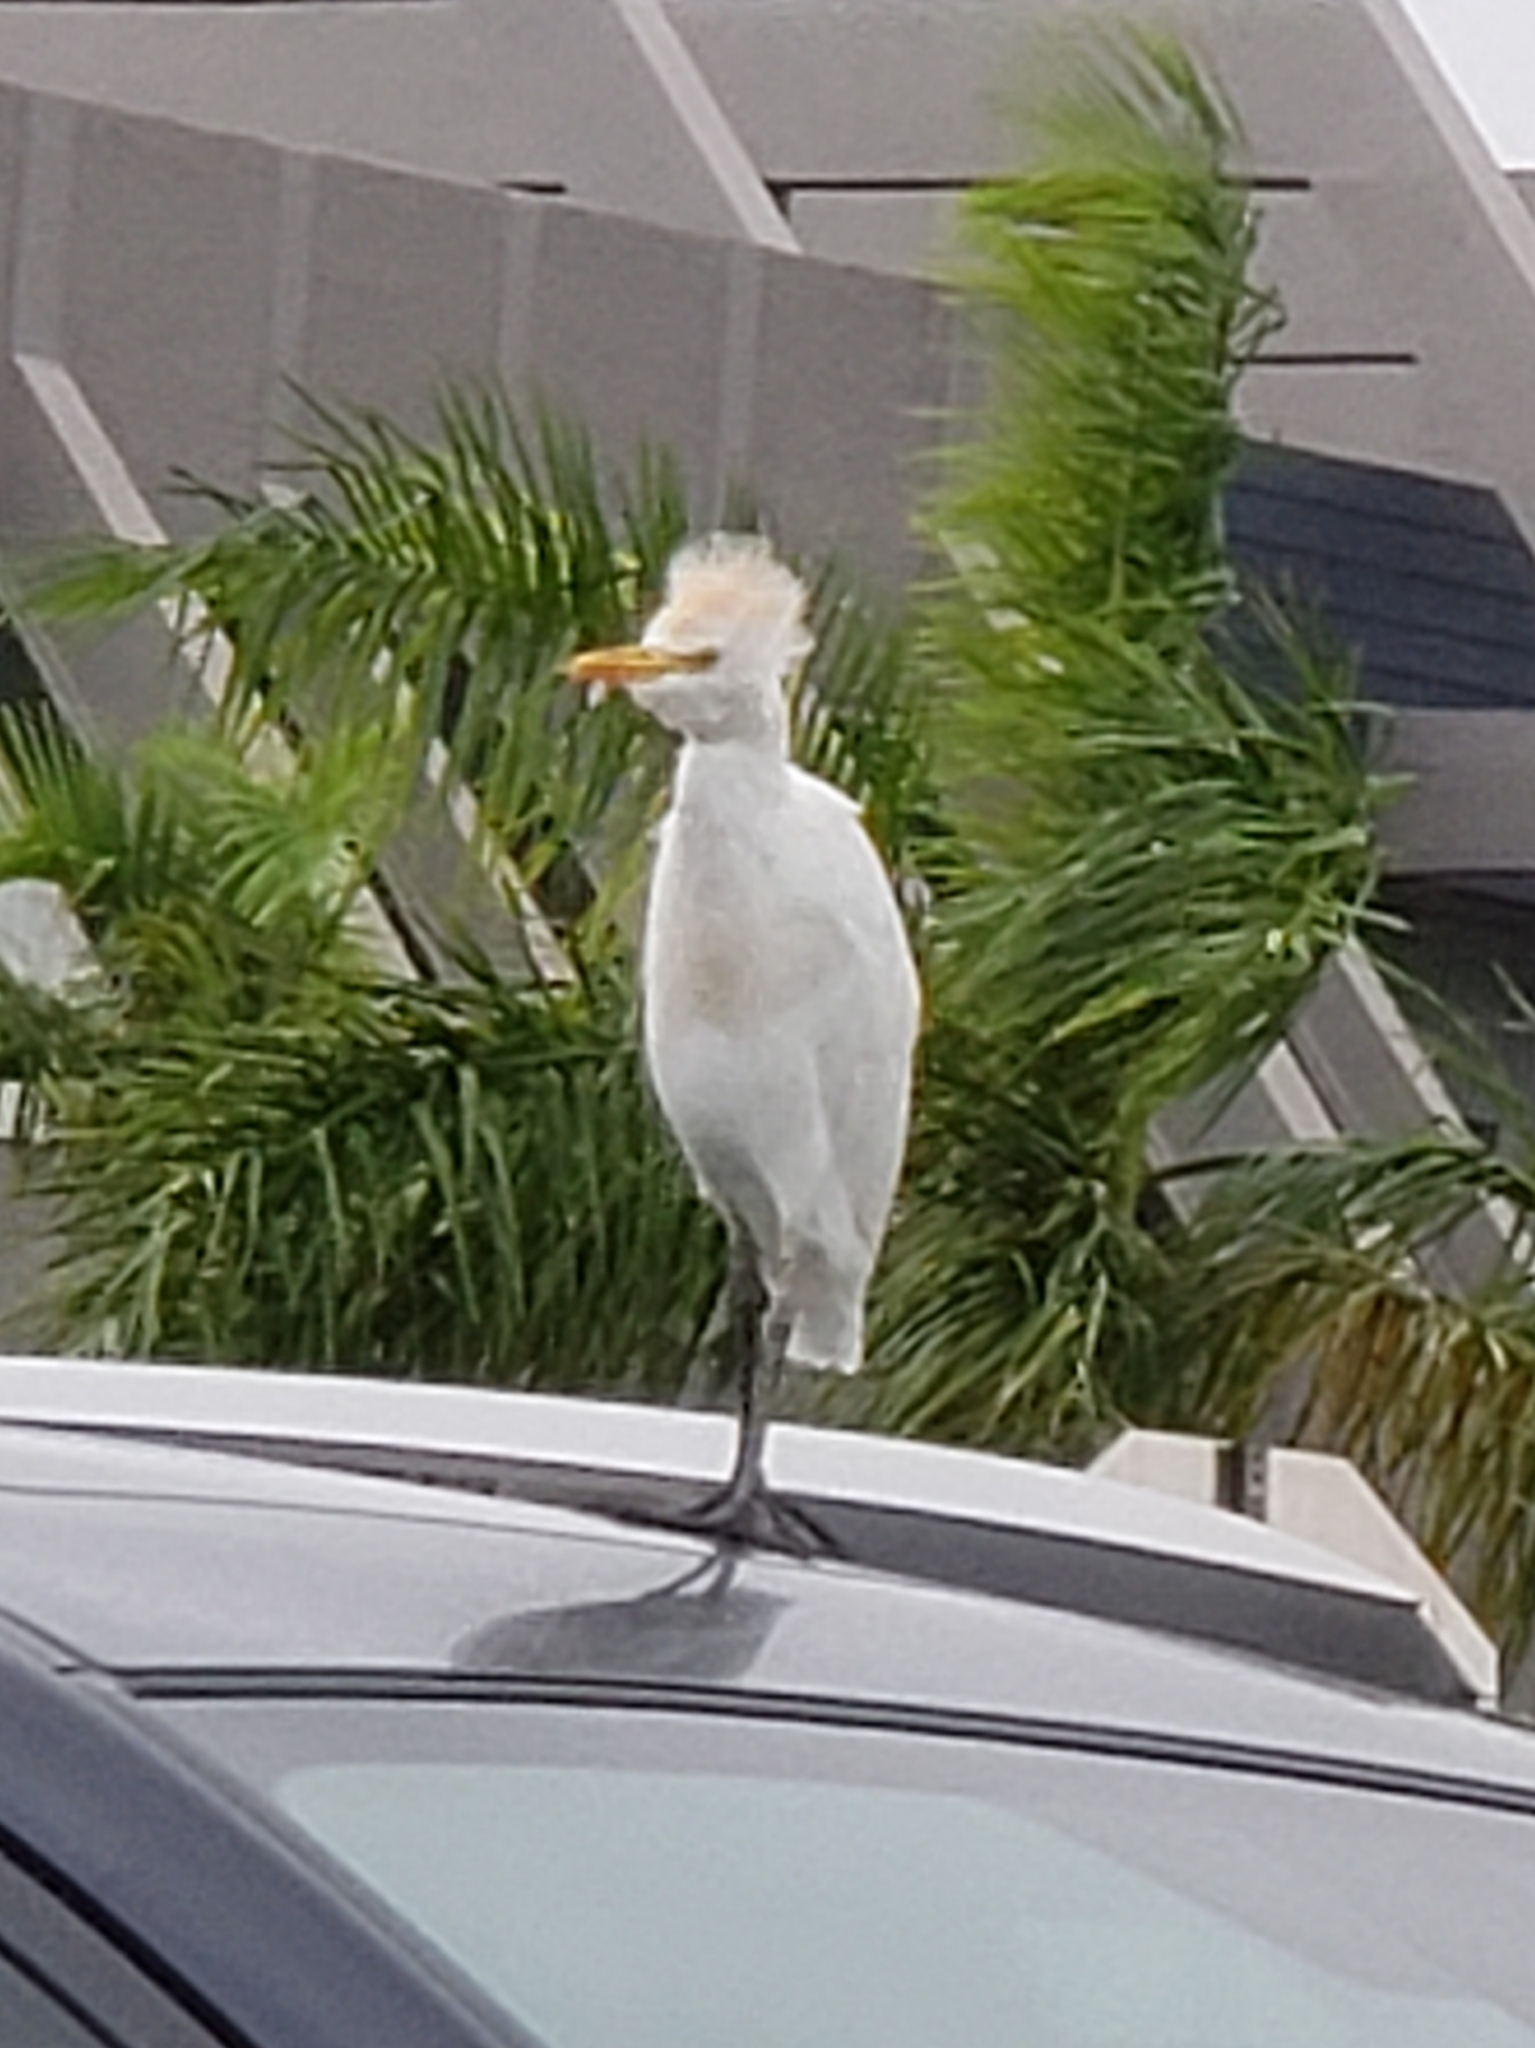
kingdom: Animalia
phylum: Chordata
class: Aves
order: Pelecaniformes
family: Ardeidae
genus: Bubulcus
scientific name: Bubulcus ibis
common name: Cattle egret
